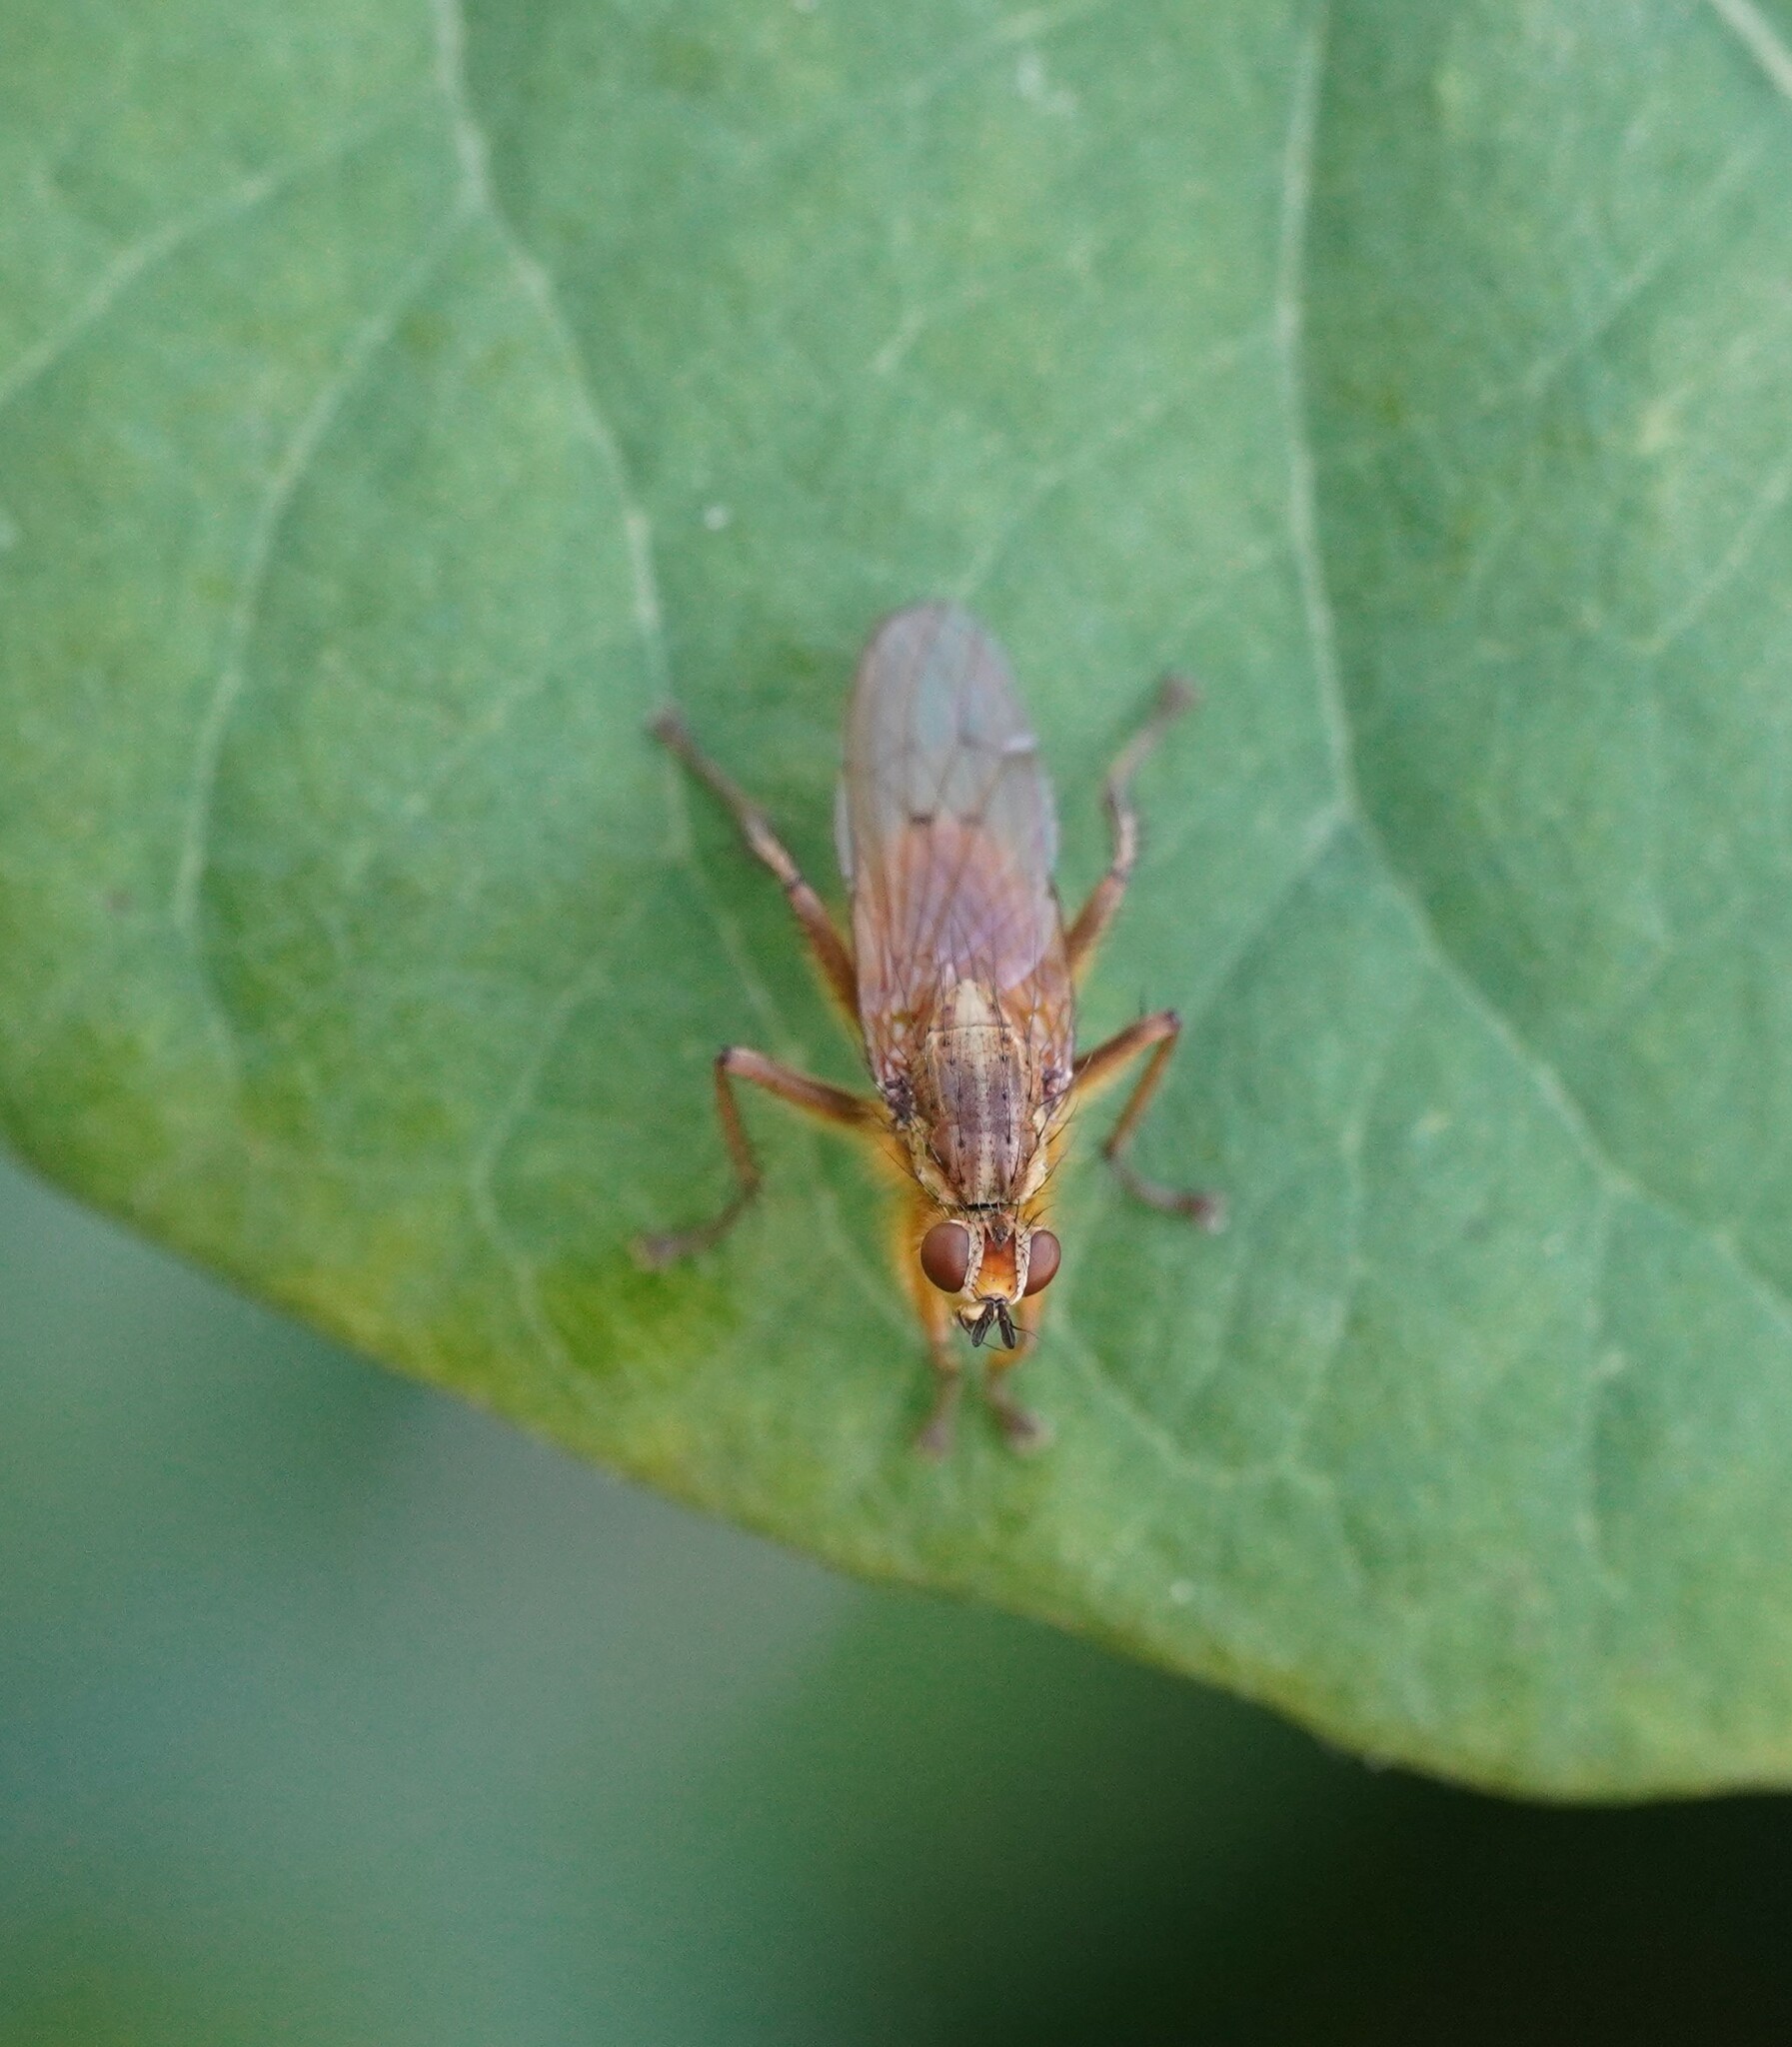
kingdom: Animalia
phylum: Arthropoda
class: Insecta
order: Diptera
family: Scathophagidae
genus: Scathophaga
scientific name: Scathophaga stercoraria
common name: Yellow dung fly
